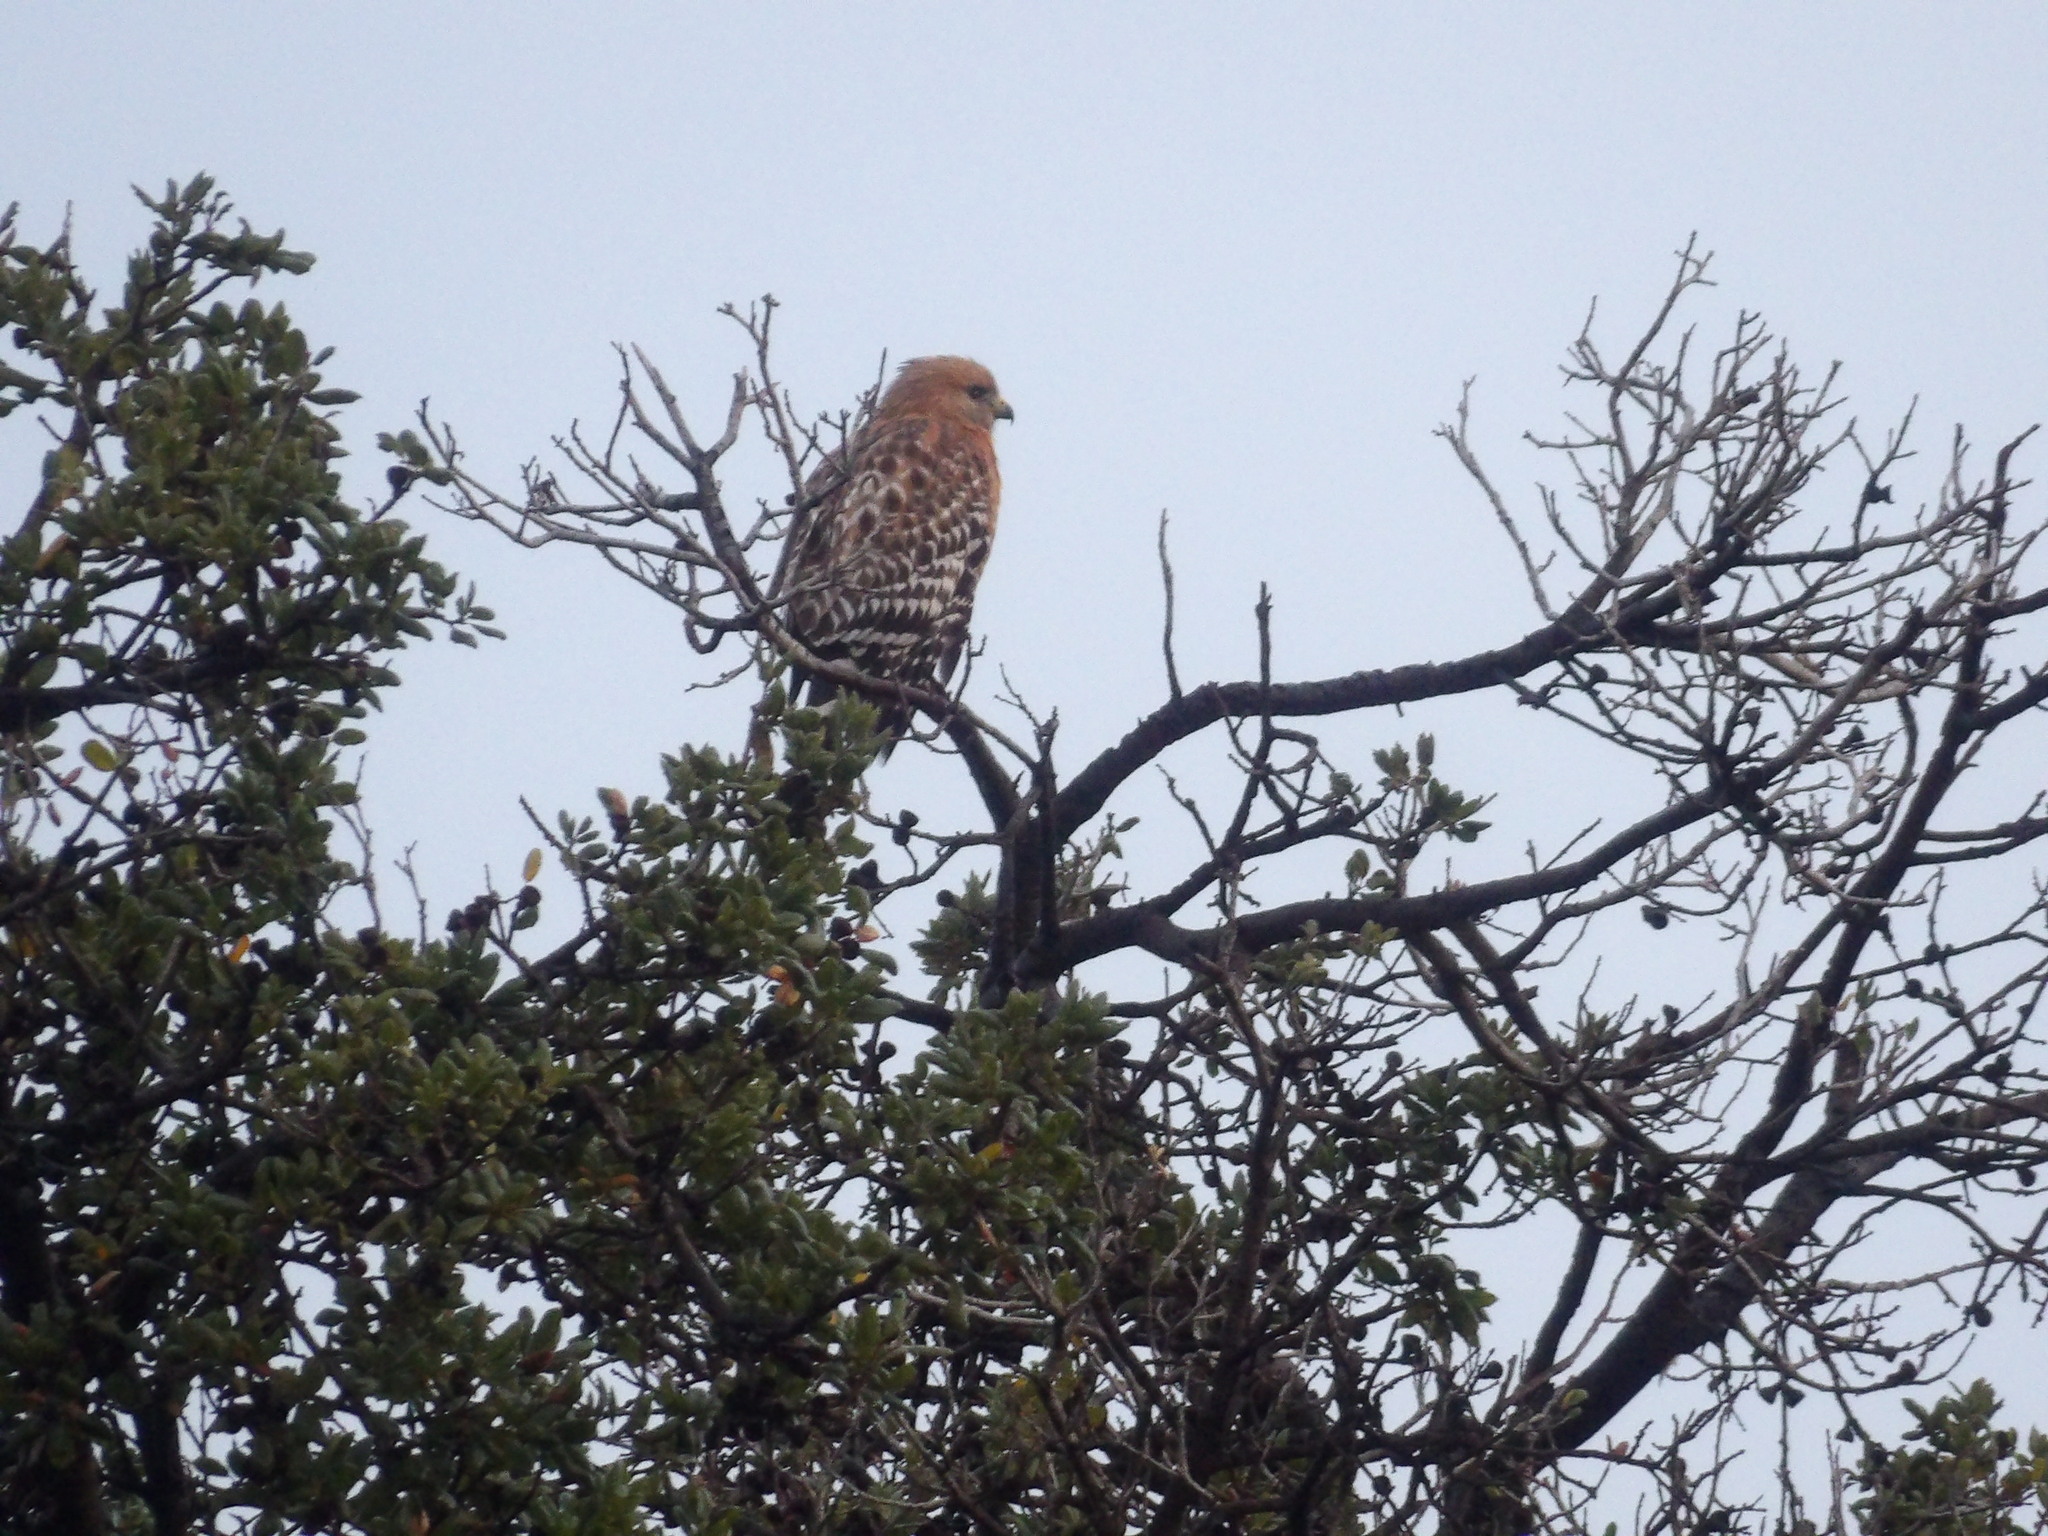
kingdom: Animalia
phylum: Chordata
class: Aves
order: Accipitriformes
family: Accipitridae
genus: Buteo
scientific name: Buteo lineatus
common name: Red-shouldered hawk
